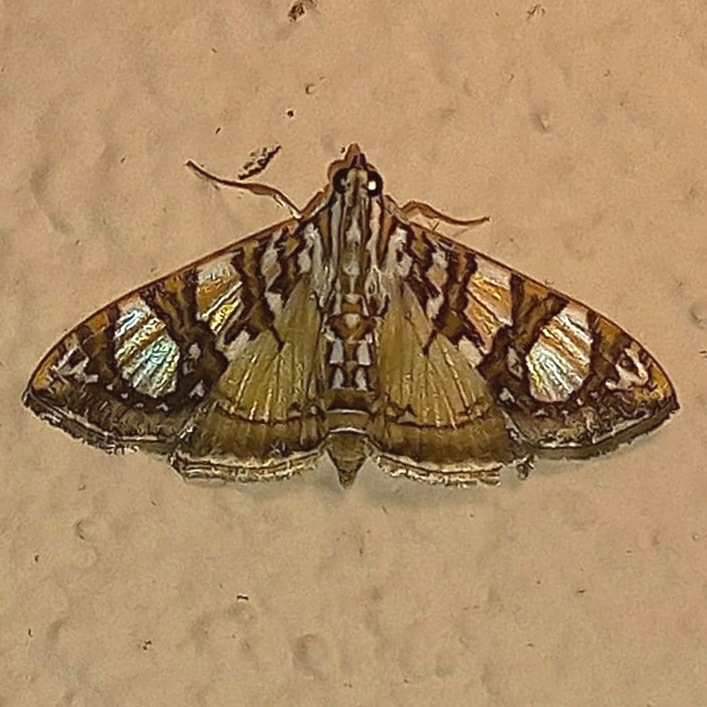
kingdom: Animalia
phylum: Arthropoda
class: Insecta
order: Lepidoptera
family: Crambidae
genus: Glyphodes
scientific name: Glyphodes sibillalis
